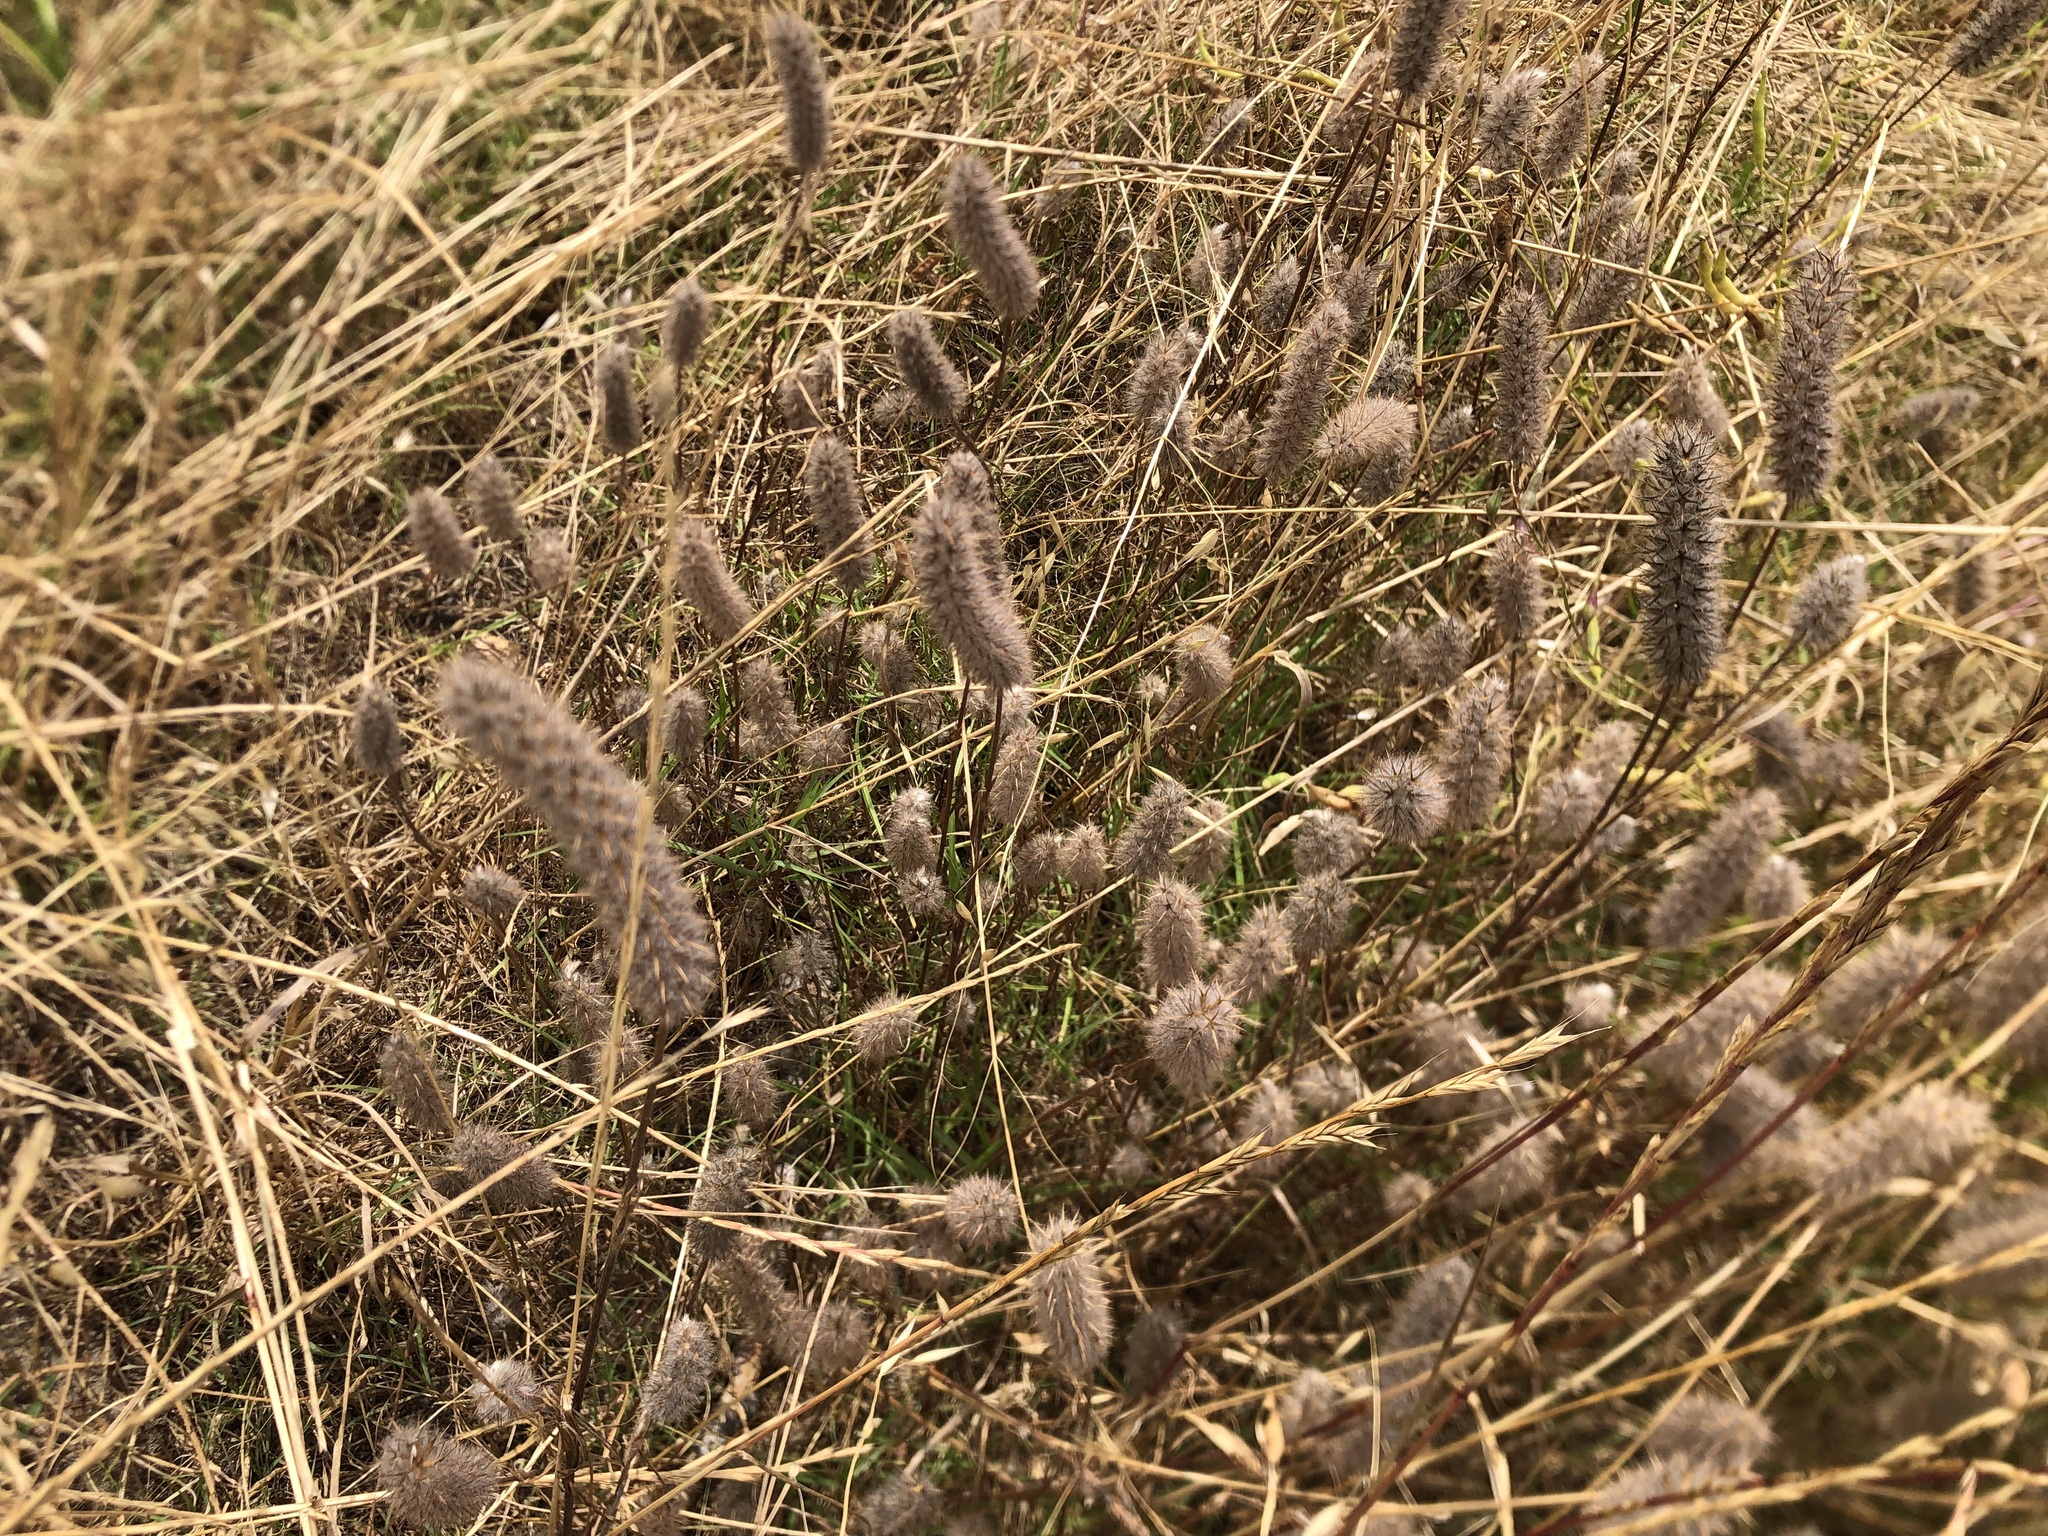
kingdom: Plantae
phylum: Tracheophyta
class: Magnoliopsida
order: Fabales
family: Fabaceae
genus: Trifolium
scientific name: Trifolium angustifolium
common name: Narrow clover
